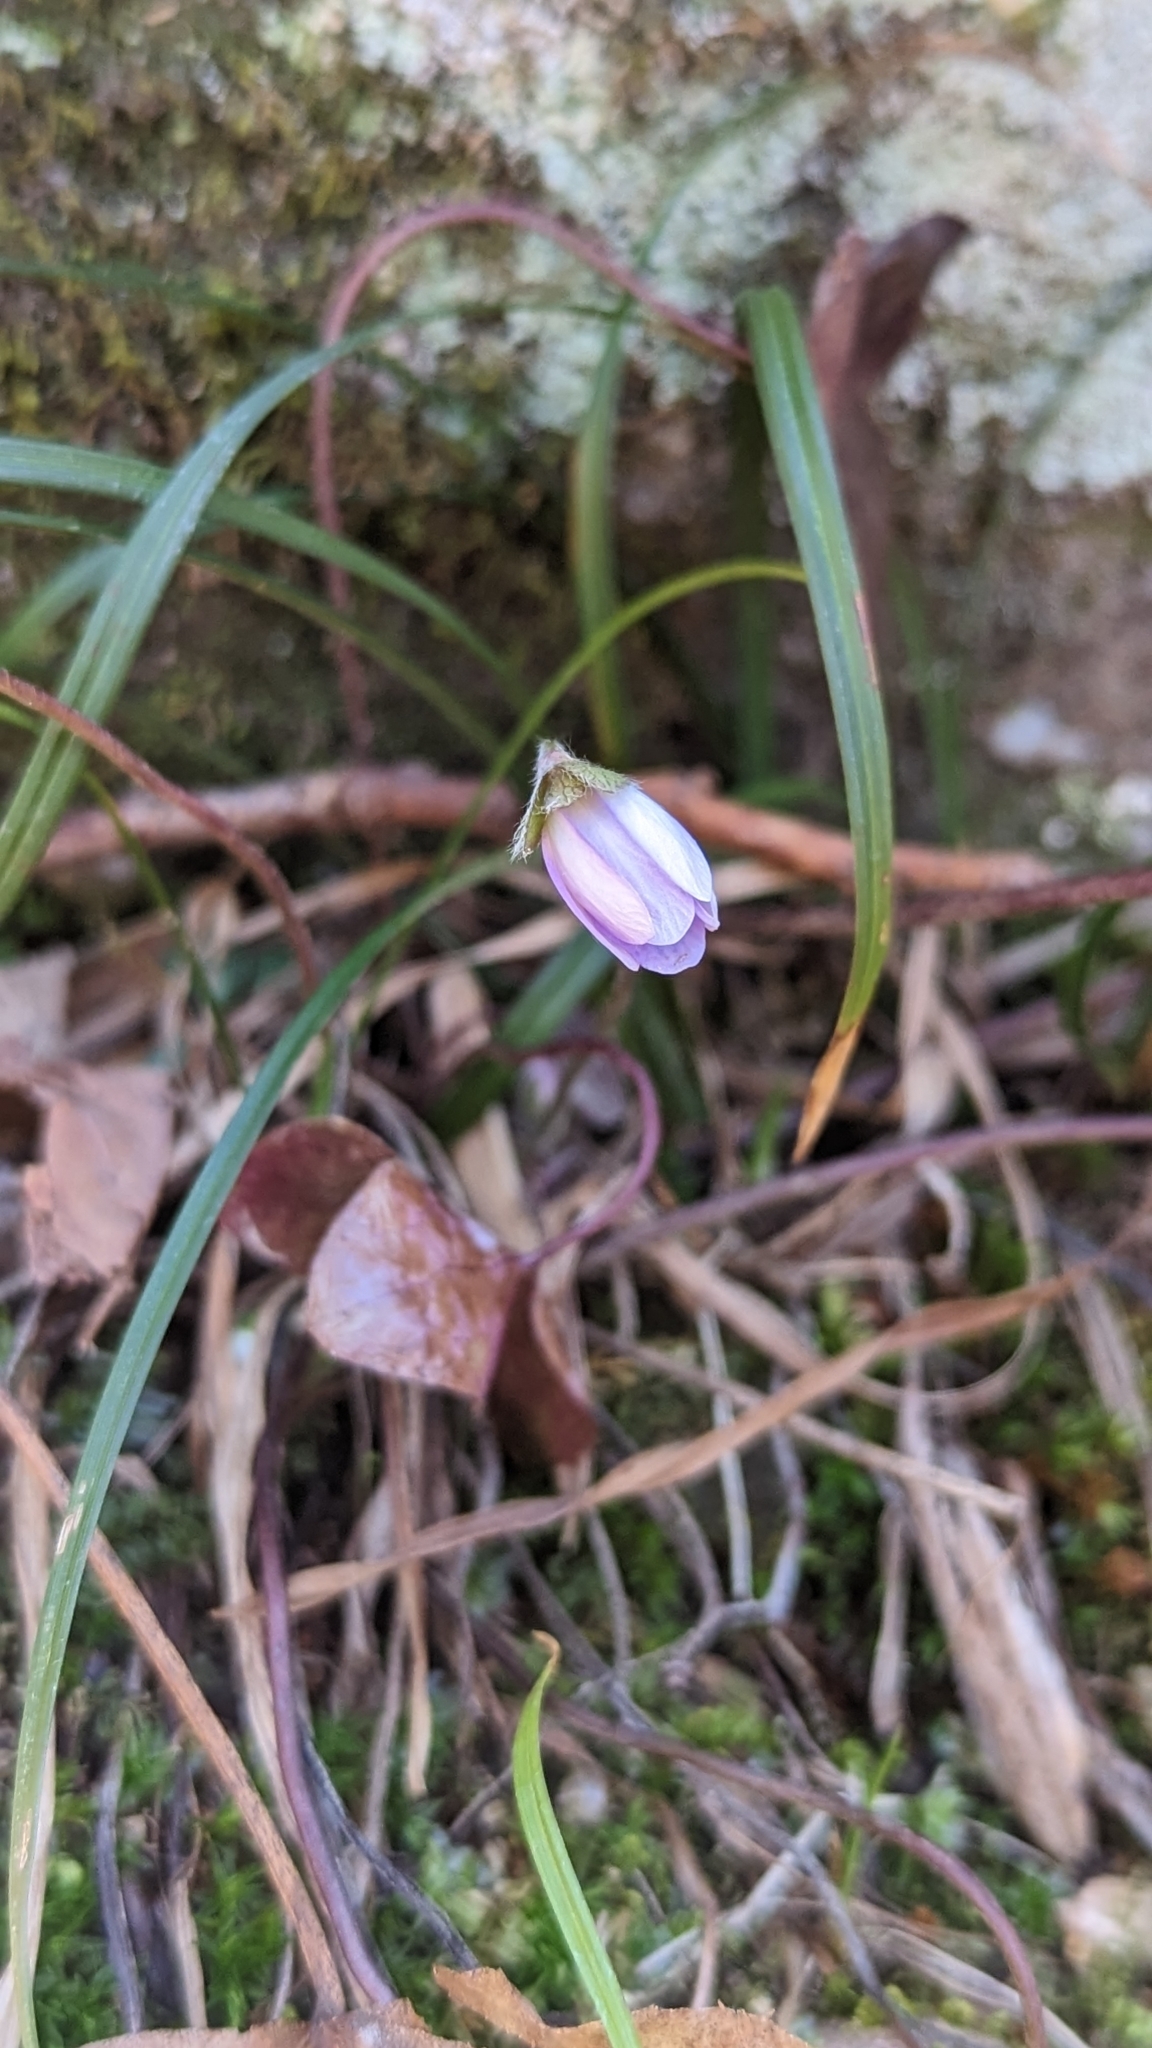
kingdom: Plantae
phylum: Tracheophyta
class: Magnoliopsida
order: Ranunculales
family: Ranunculaceae
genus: Hepatica
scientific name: Hepatica acutiloba
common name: Sharp-lobed hepatica
